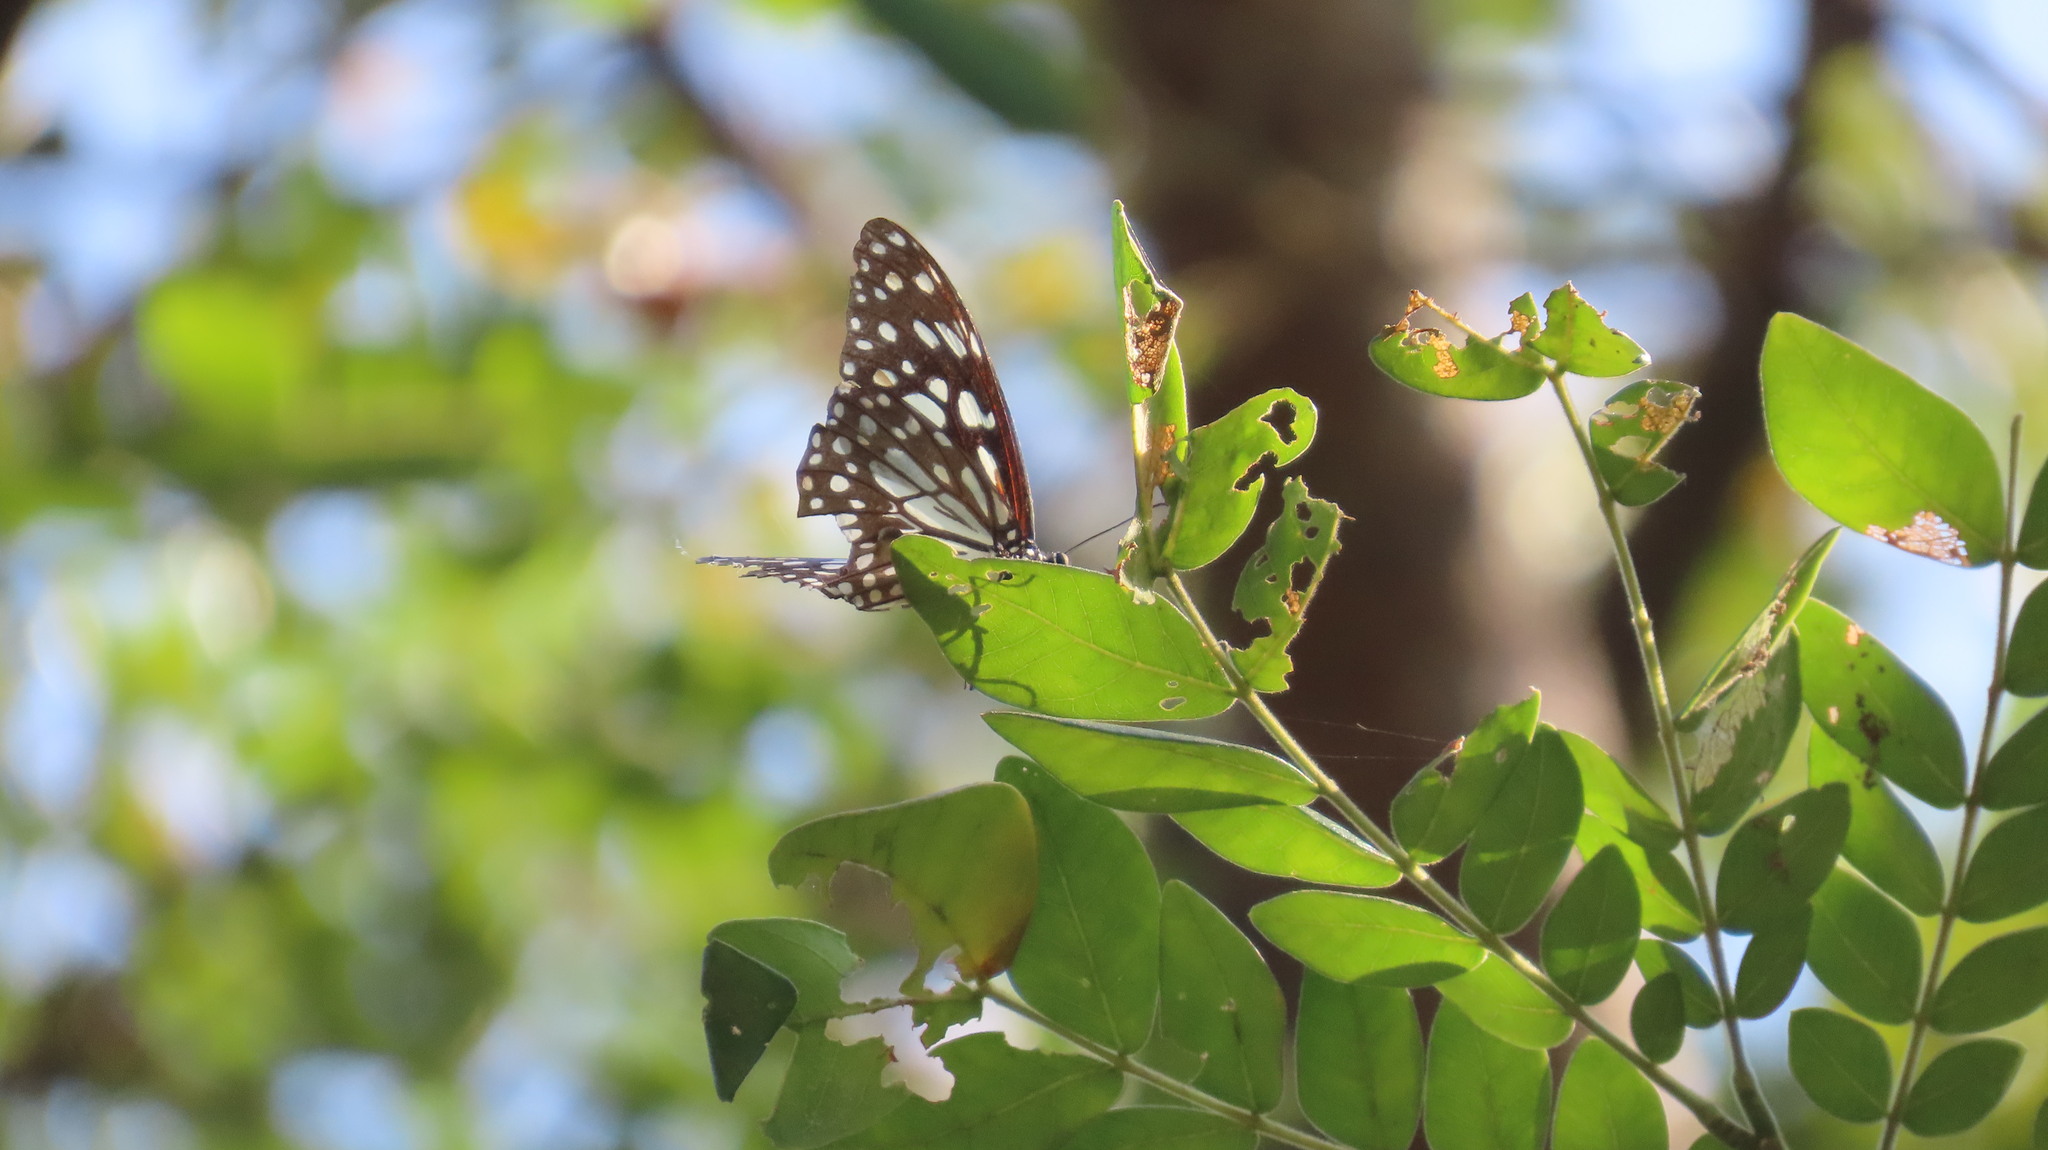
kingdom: Animalia
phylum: Arthropoda
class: Insecta
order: Lepidoptera
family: Nymphalidae
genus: Tirumala
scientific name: Tirumala limniace
